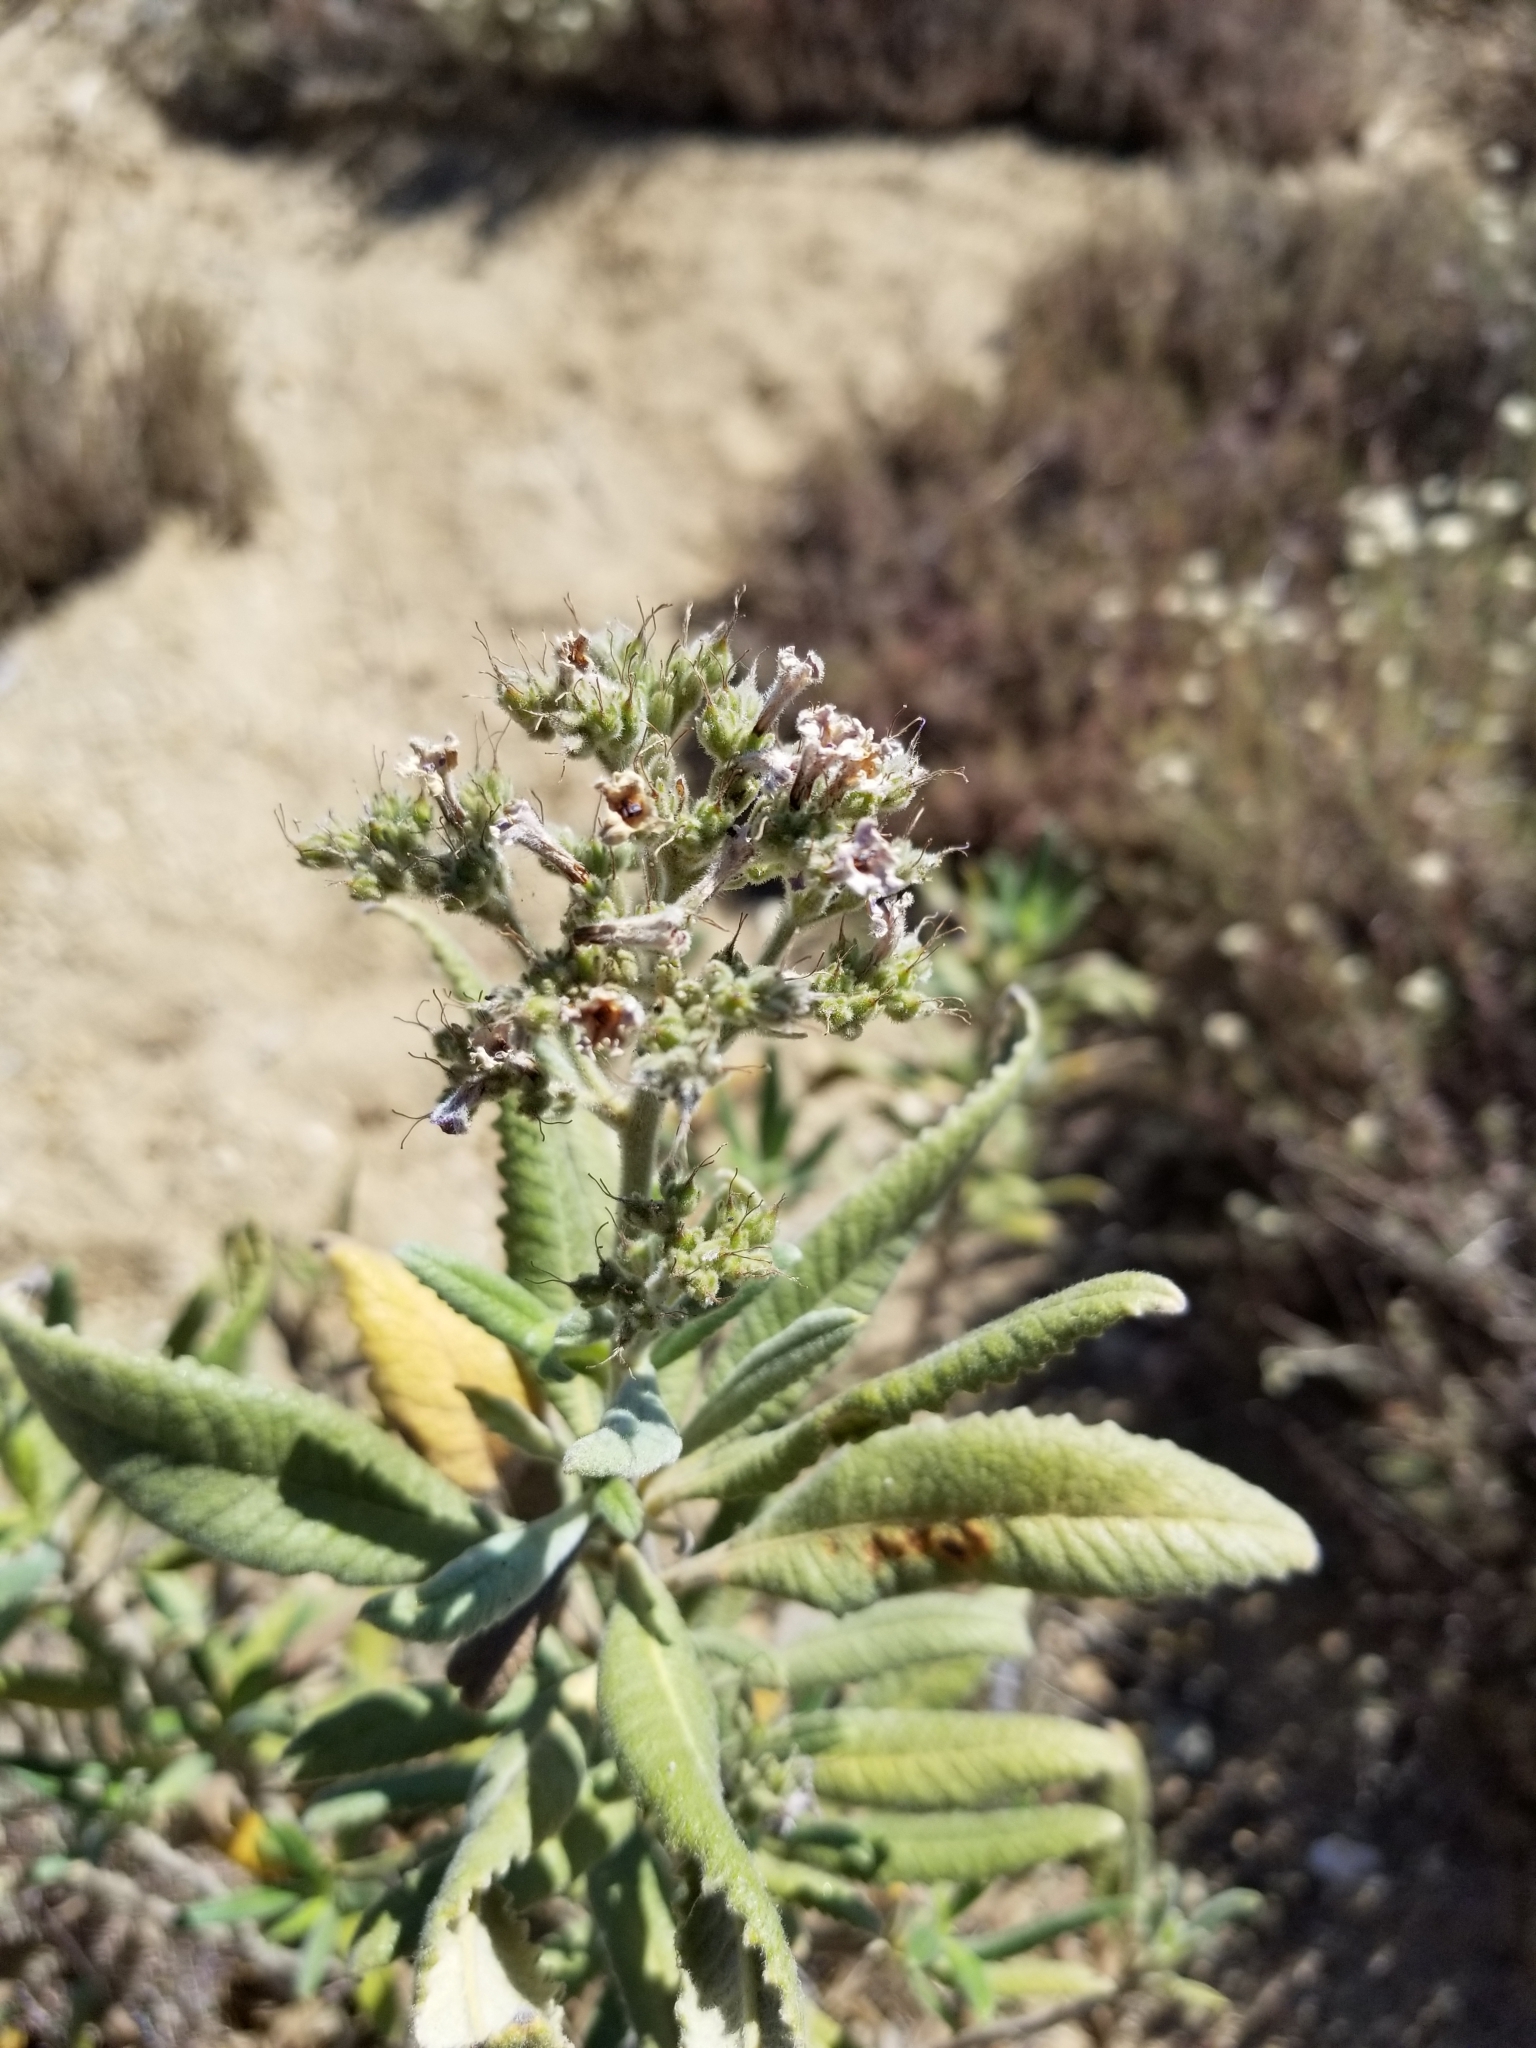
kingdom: Plantae
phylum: Tracheophyta
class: Magnoliopsida
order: Boraginales
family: Namaceae
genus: Eriodictyon
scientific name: Eriodictyon crassifolium
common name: Thick-leaf yerba-santa
